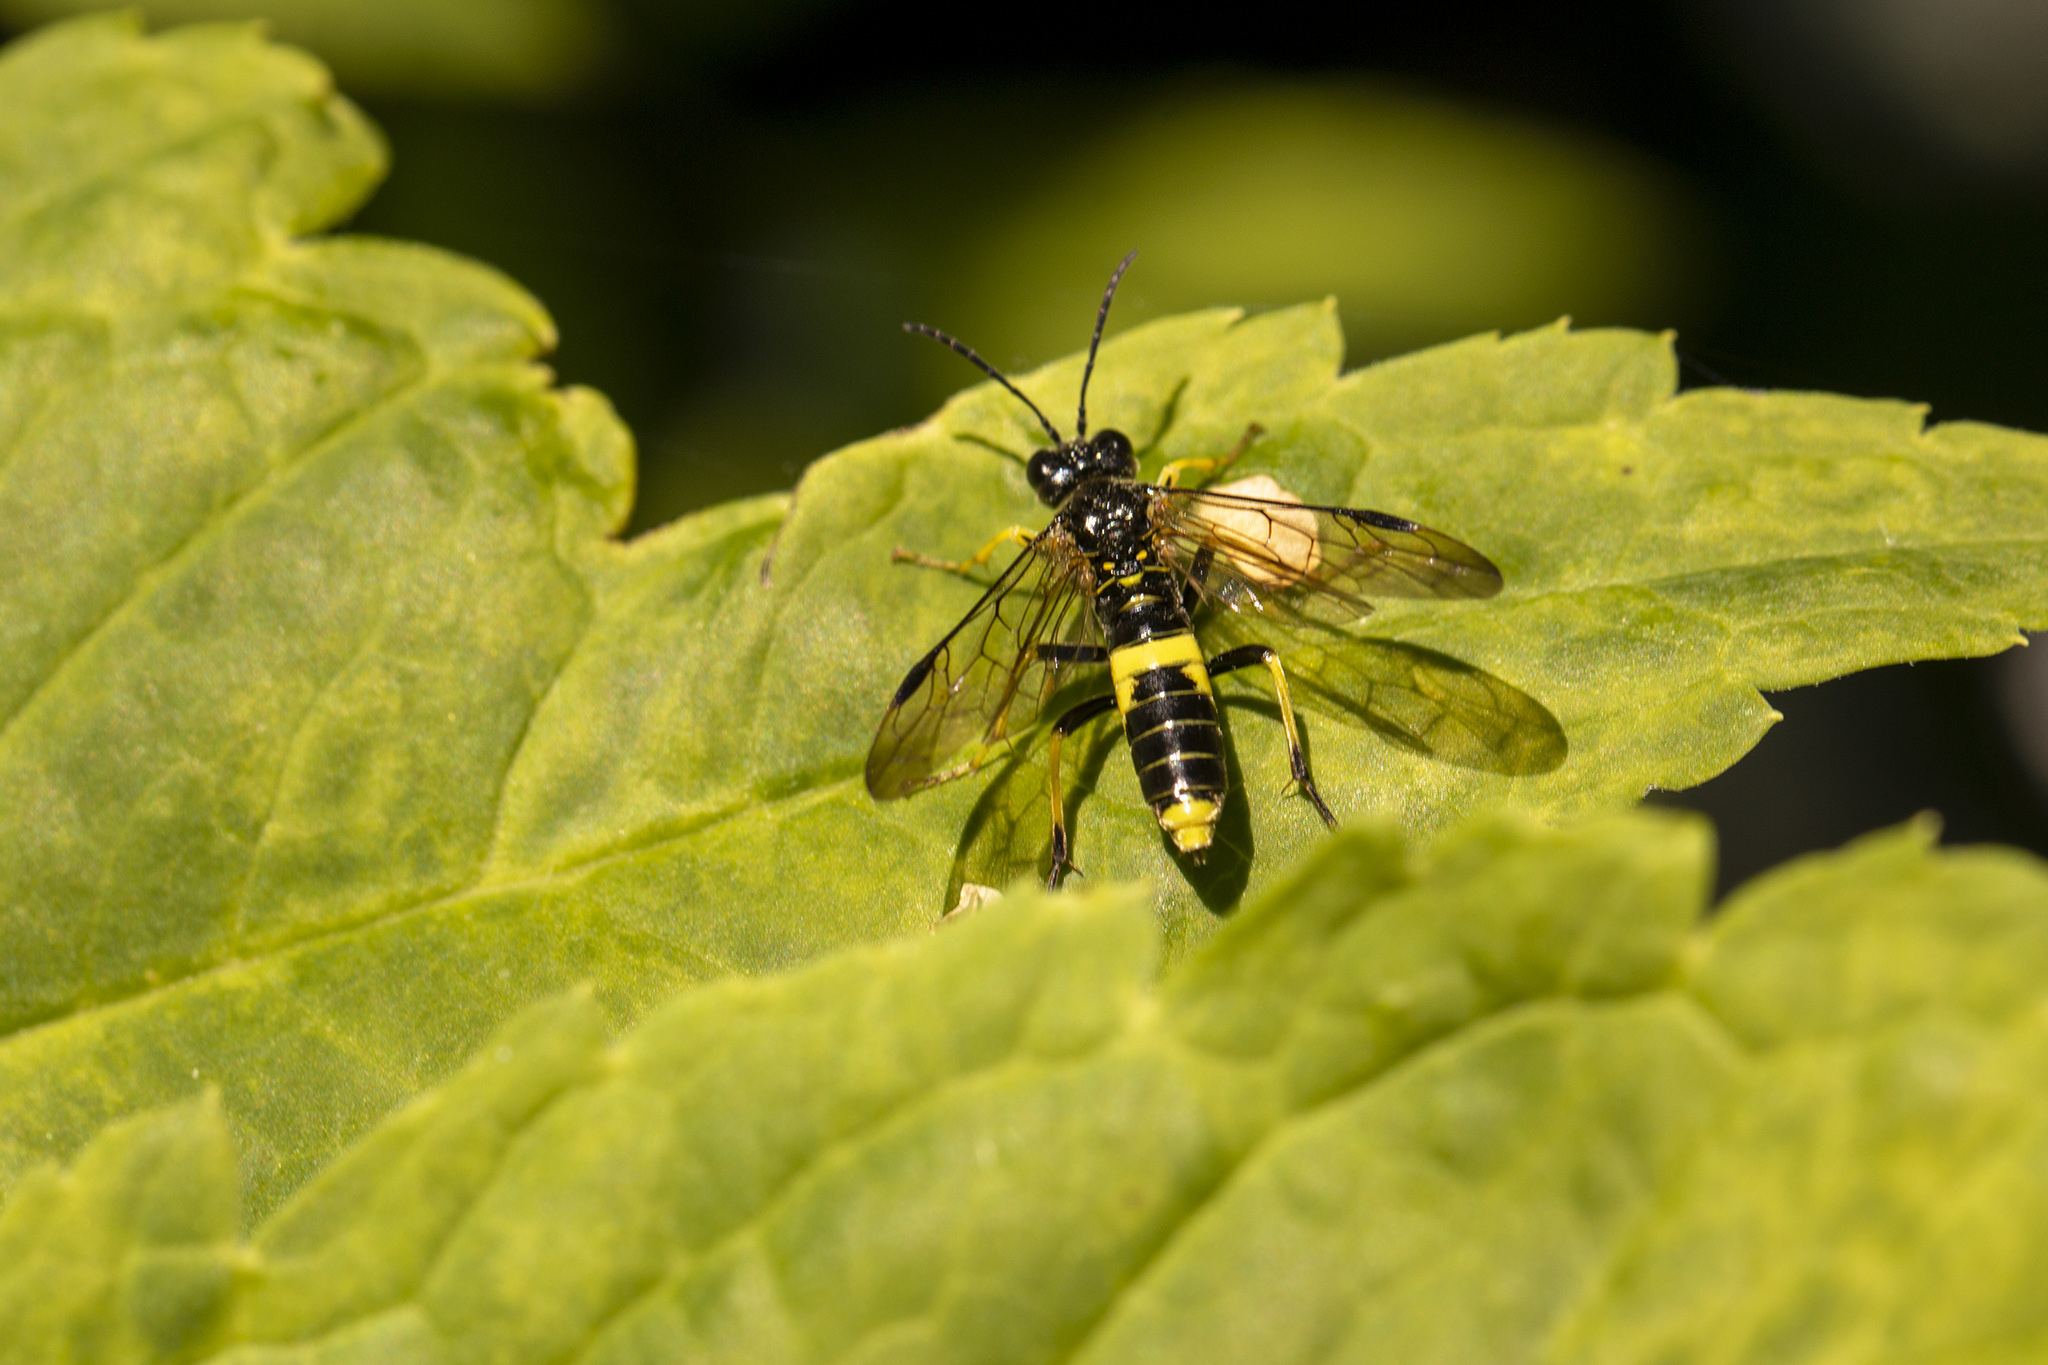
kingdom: Animalia
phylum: Arthropoda
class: Insecta
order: Hymenoptera
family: Tenthredinidae
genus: Tenthredo
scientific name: Tenthredo temula
